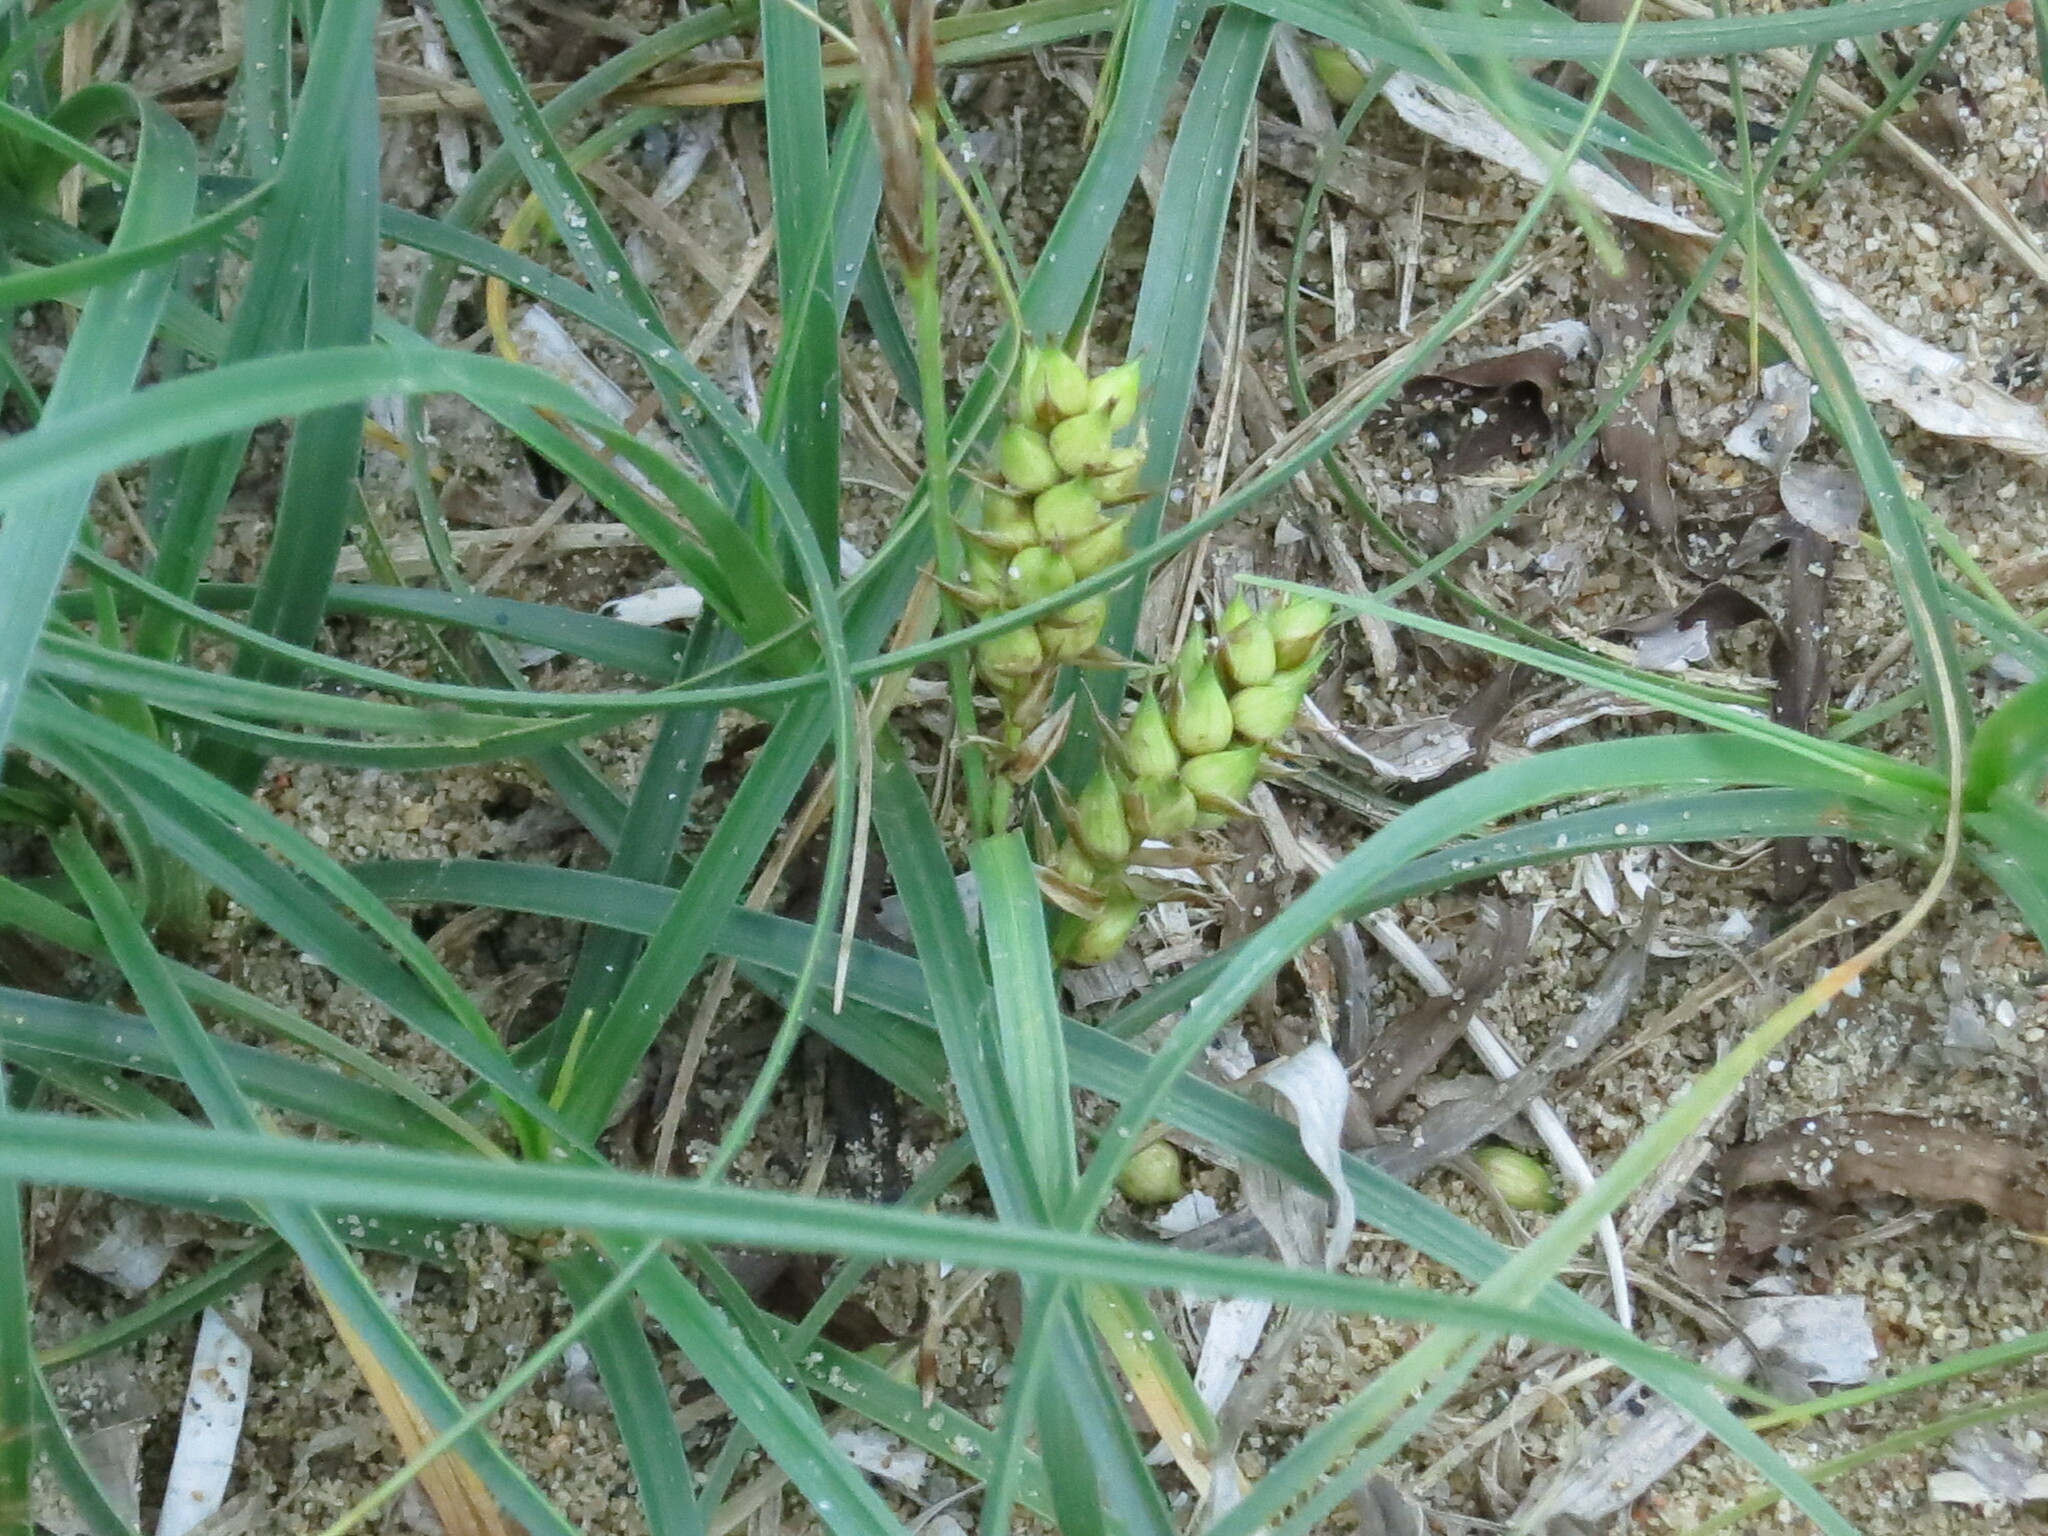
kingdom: Plantae
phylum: Tracheophyta
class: Liliopsida
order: Poales
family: Cyperaceae
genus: Carex
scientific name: Carex pumila
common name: Dwarf sedge
